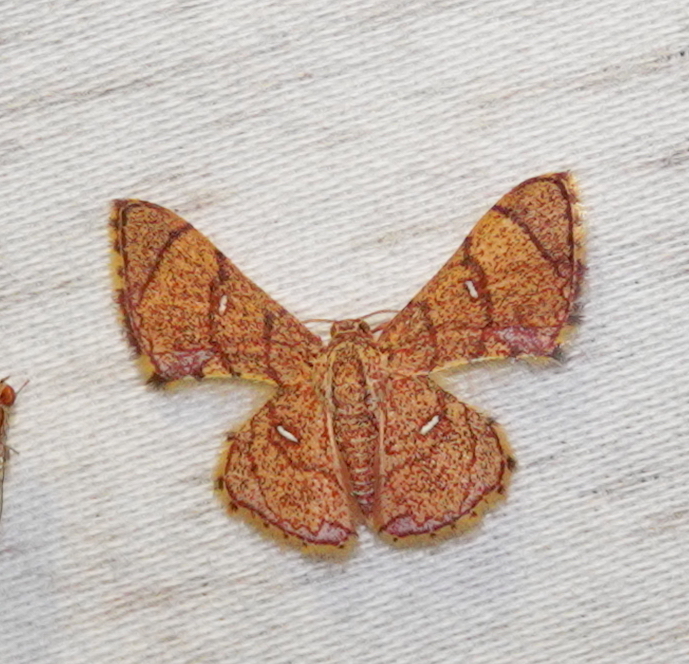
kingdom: Animalia
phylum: Arthropoda
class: Insecta
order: Lepidoptera
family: Geometridae
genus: Hemipterodes
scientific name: Hemipterodes subrotundata
